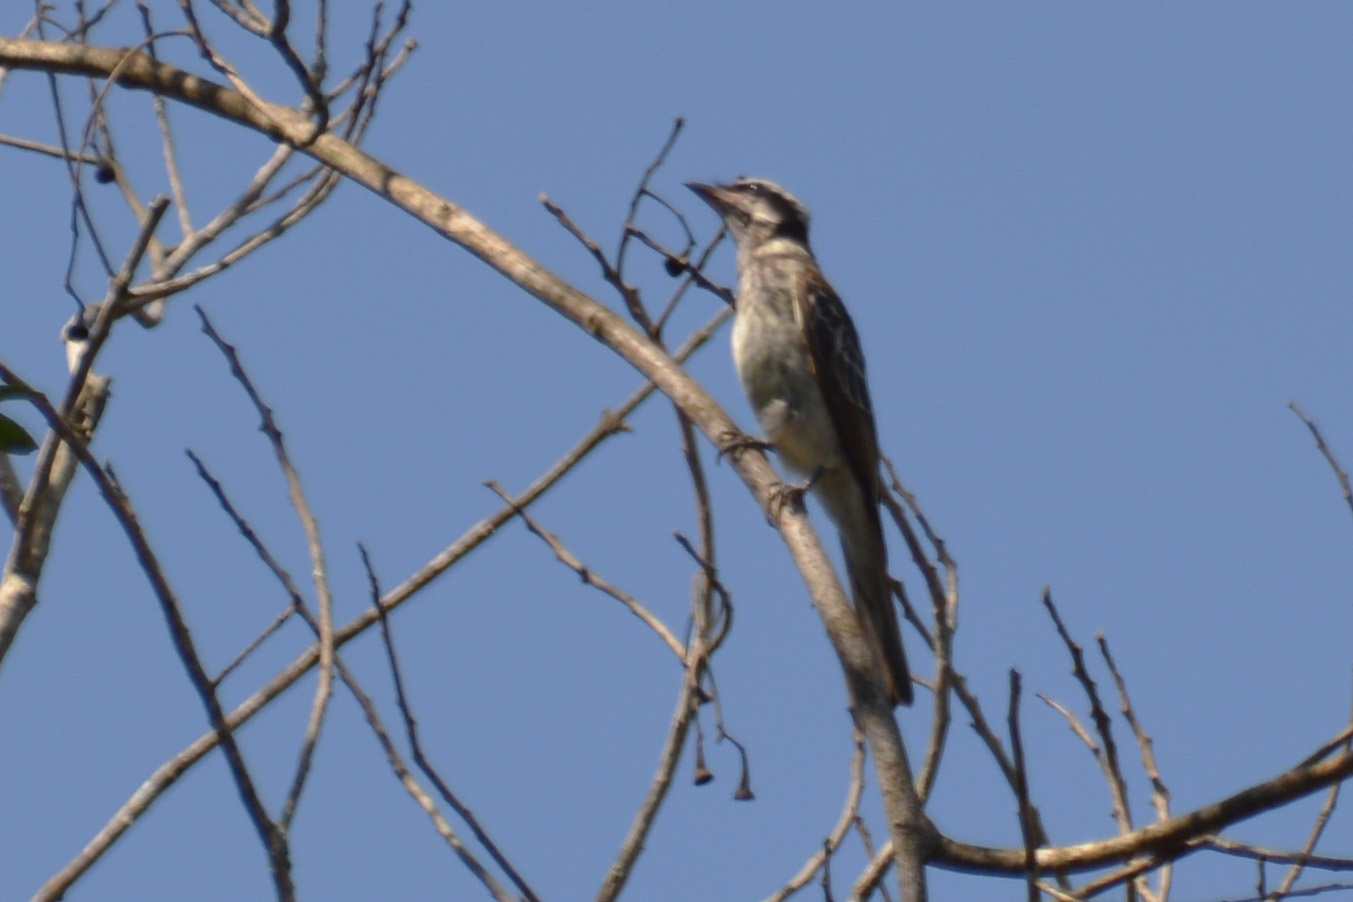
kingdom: Animalia
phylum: Chordata
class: Aves
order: Passeriformes
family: Tyrannidae
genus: Empidonomus
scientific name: Empidonomus varius
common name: Variegated flycatcher
